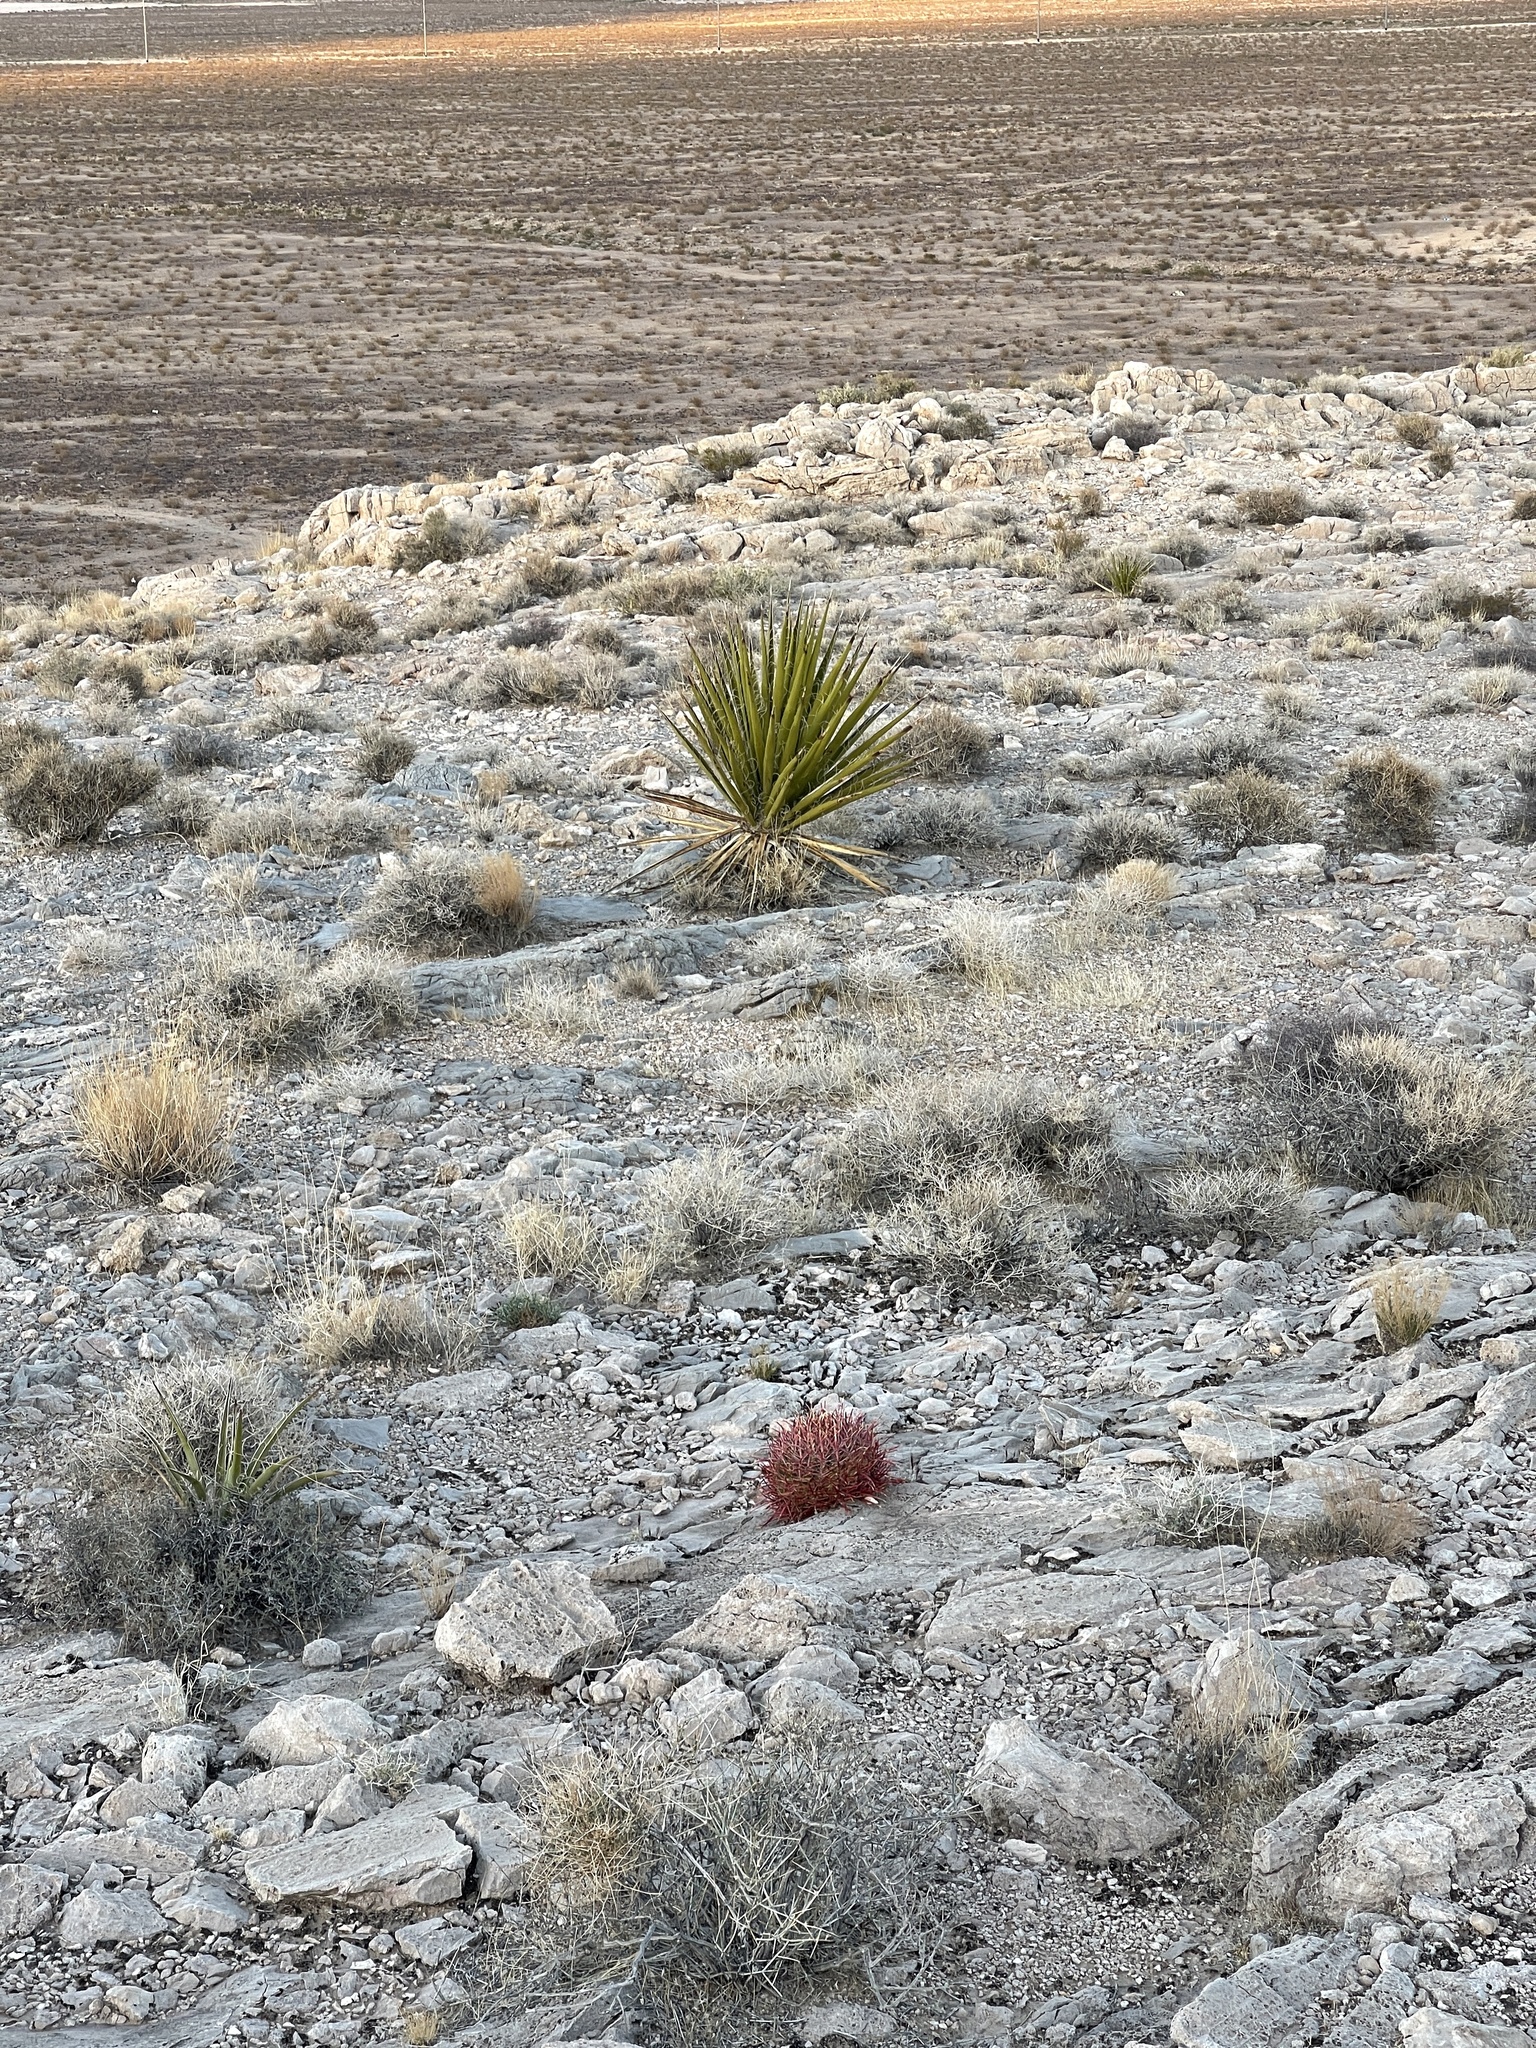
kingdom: Plantae
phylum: Tracheophyta
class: Magnoliopsida
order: Caryophyllales
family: Cactaceae
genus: Ferocactus
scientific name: Ferocactus cylindraceus
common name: California barrel cactus
